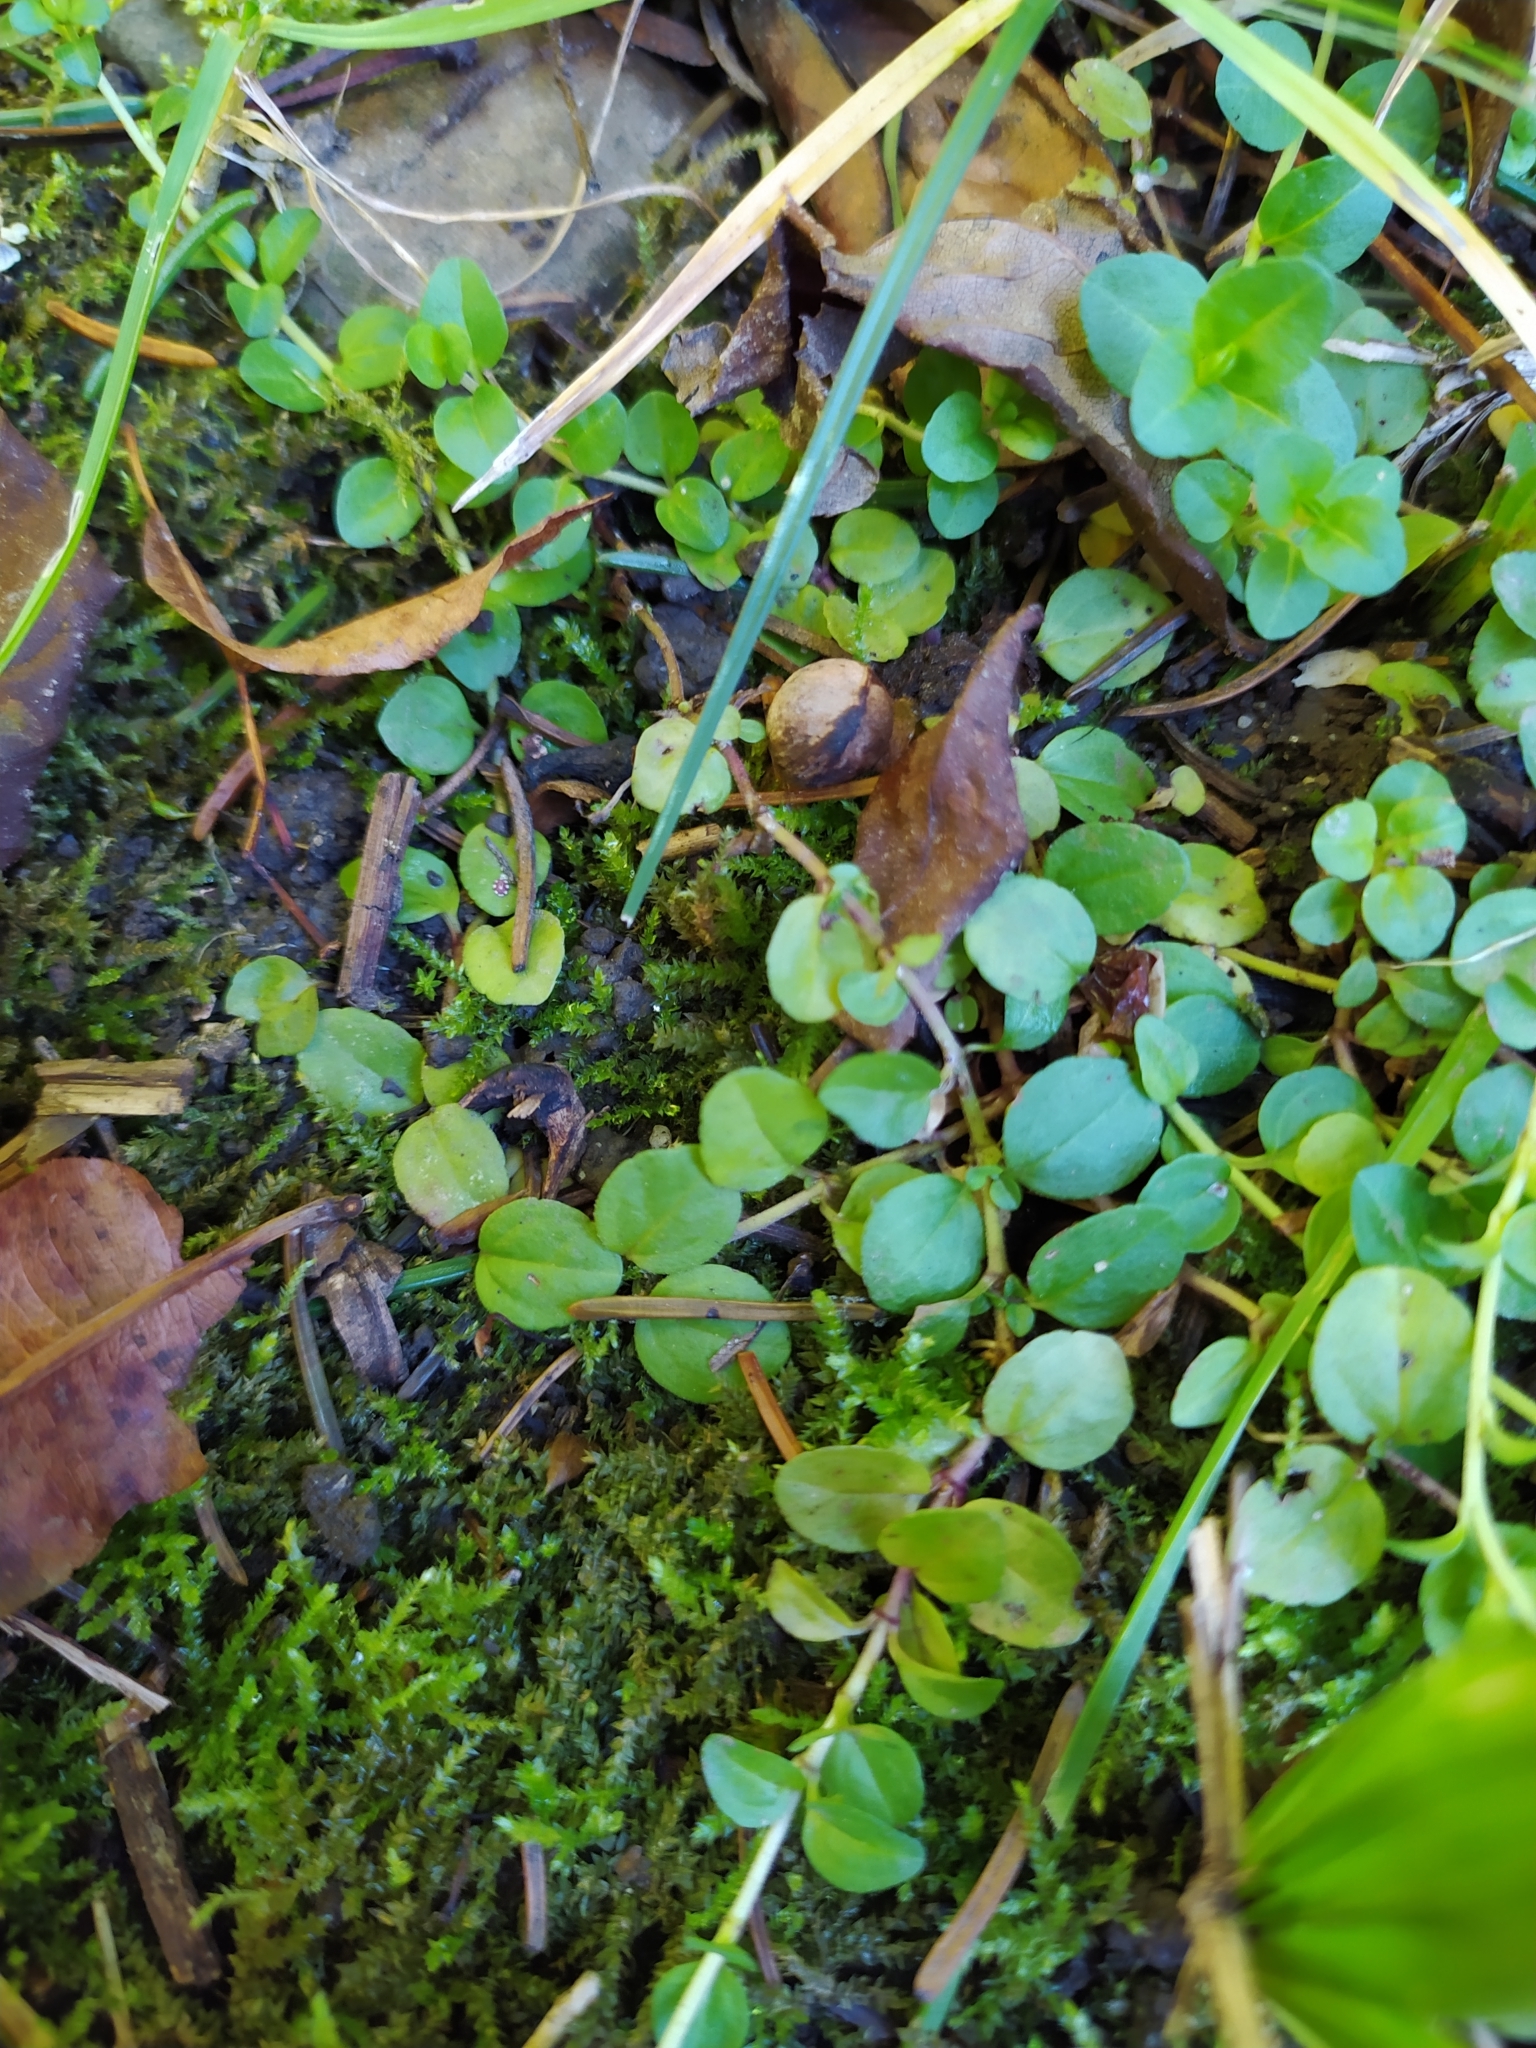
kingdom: Plantae
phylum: Tracheophyta
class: Magnoliopsida
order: Lamiales
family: Plantaginaceae
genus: Veronica
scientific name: Veronica serpyllifolia
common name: Thyme-leaved speedwell
